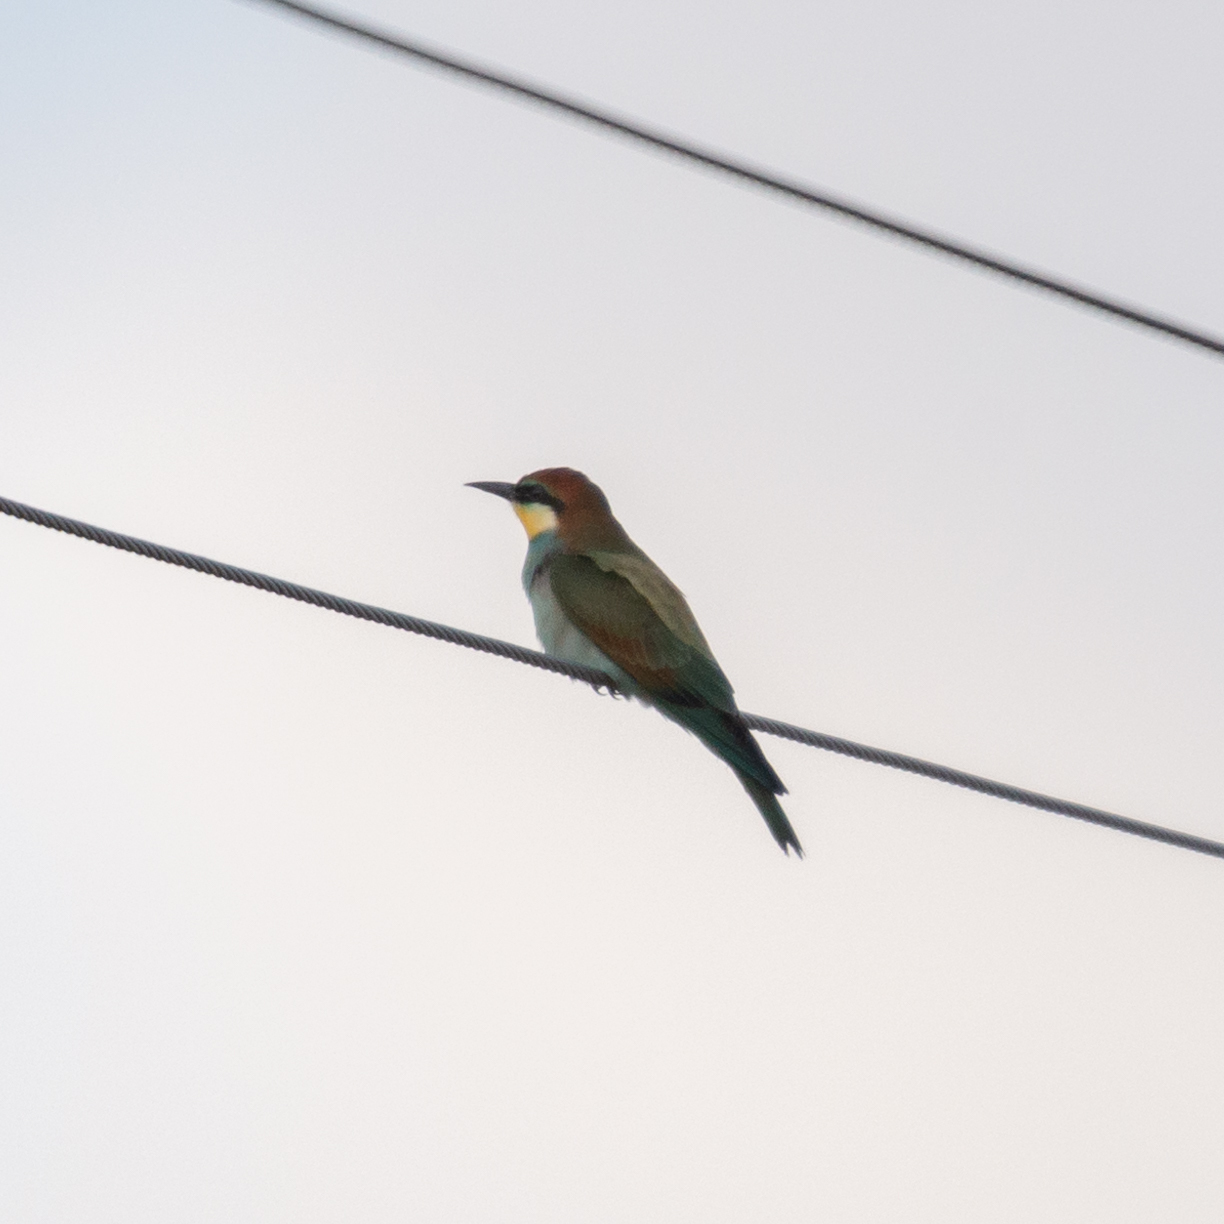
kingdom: Animalia
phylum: Chordata
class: Aves
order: Coraciiformes
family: Meropidae
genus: Merops
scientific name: Merops apiaster
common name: European bee-eater
